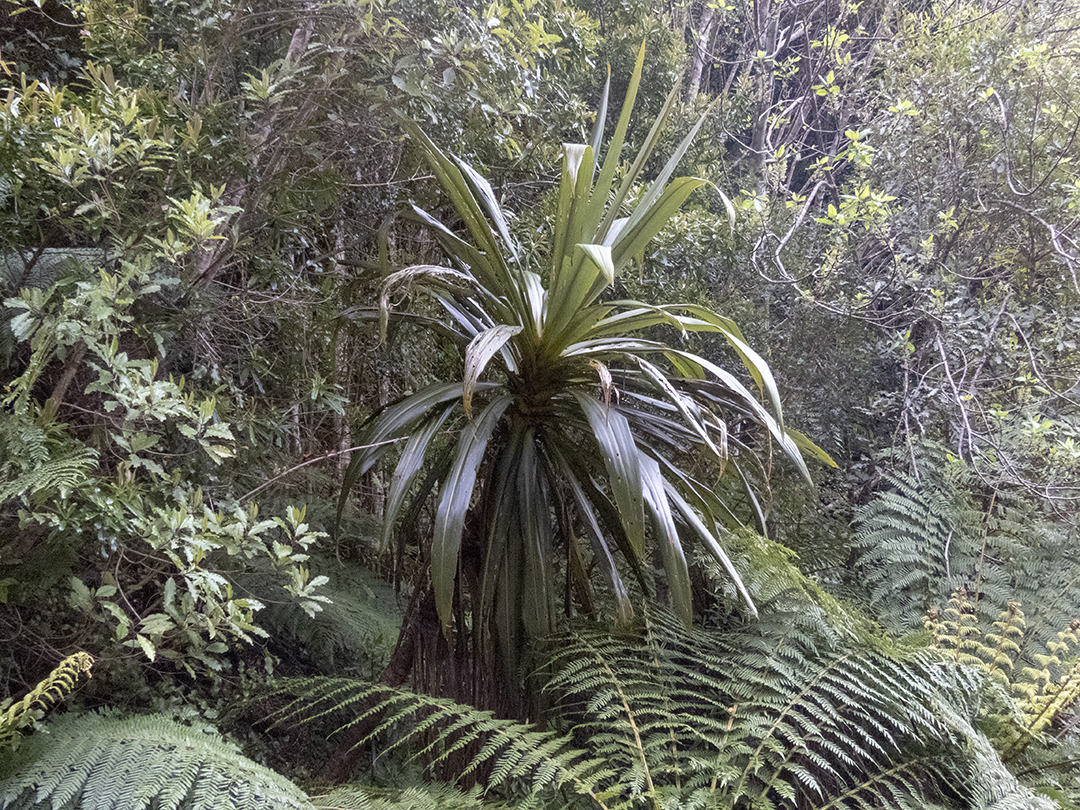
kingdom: Plantae
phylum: Tracheophyta
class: Liliopsida
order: Asparagales
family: Asparagaceae
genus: Cordyline
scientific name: Cordyline indivisa
